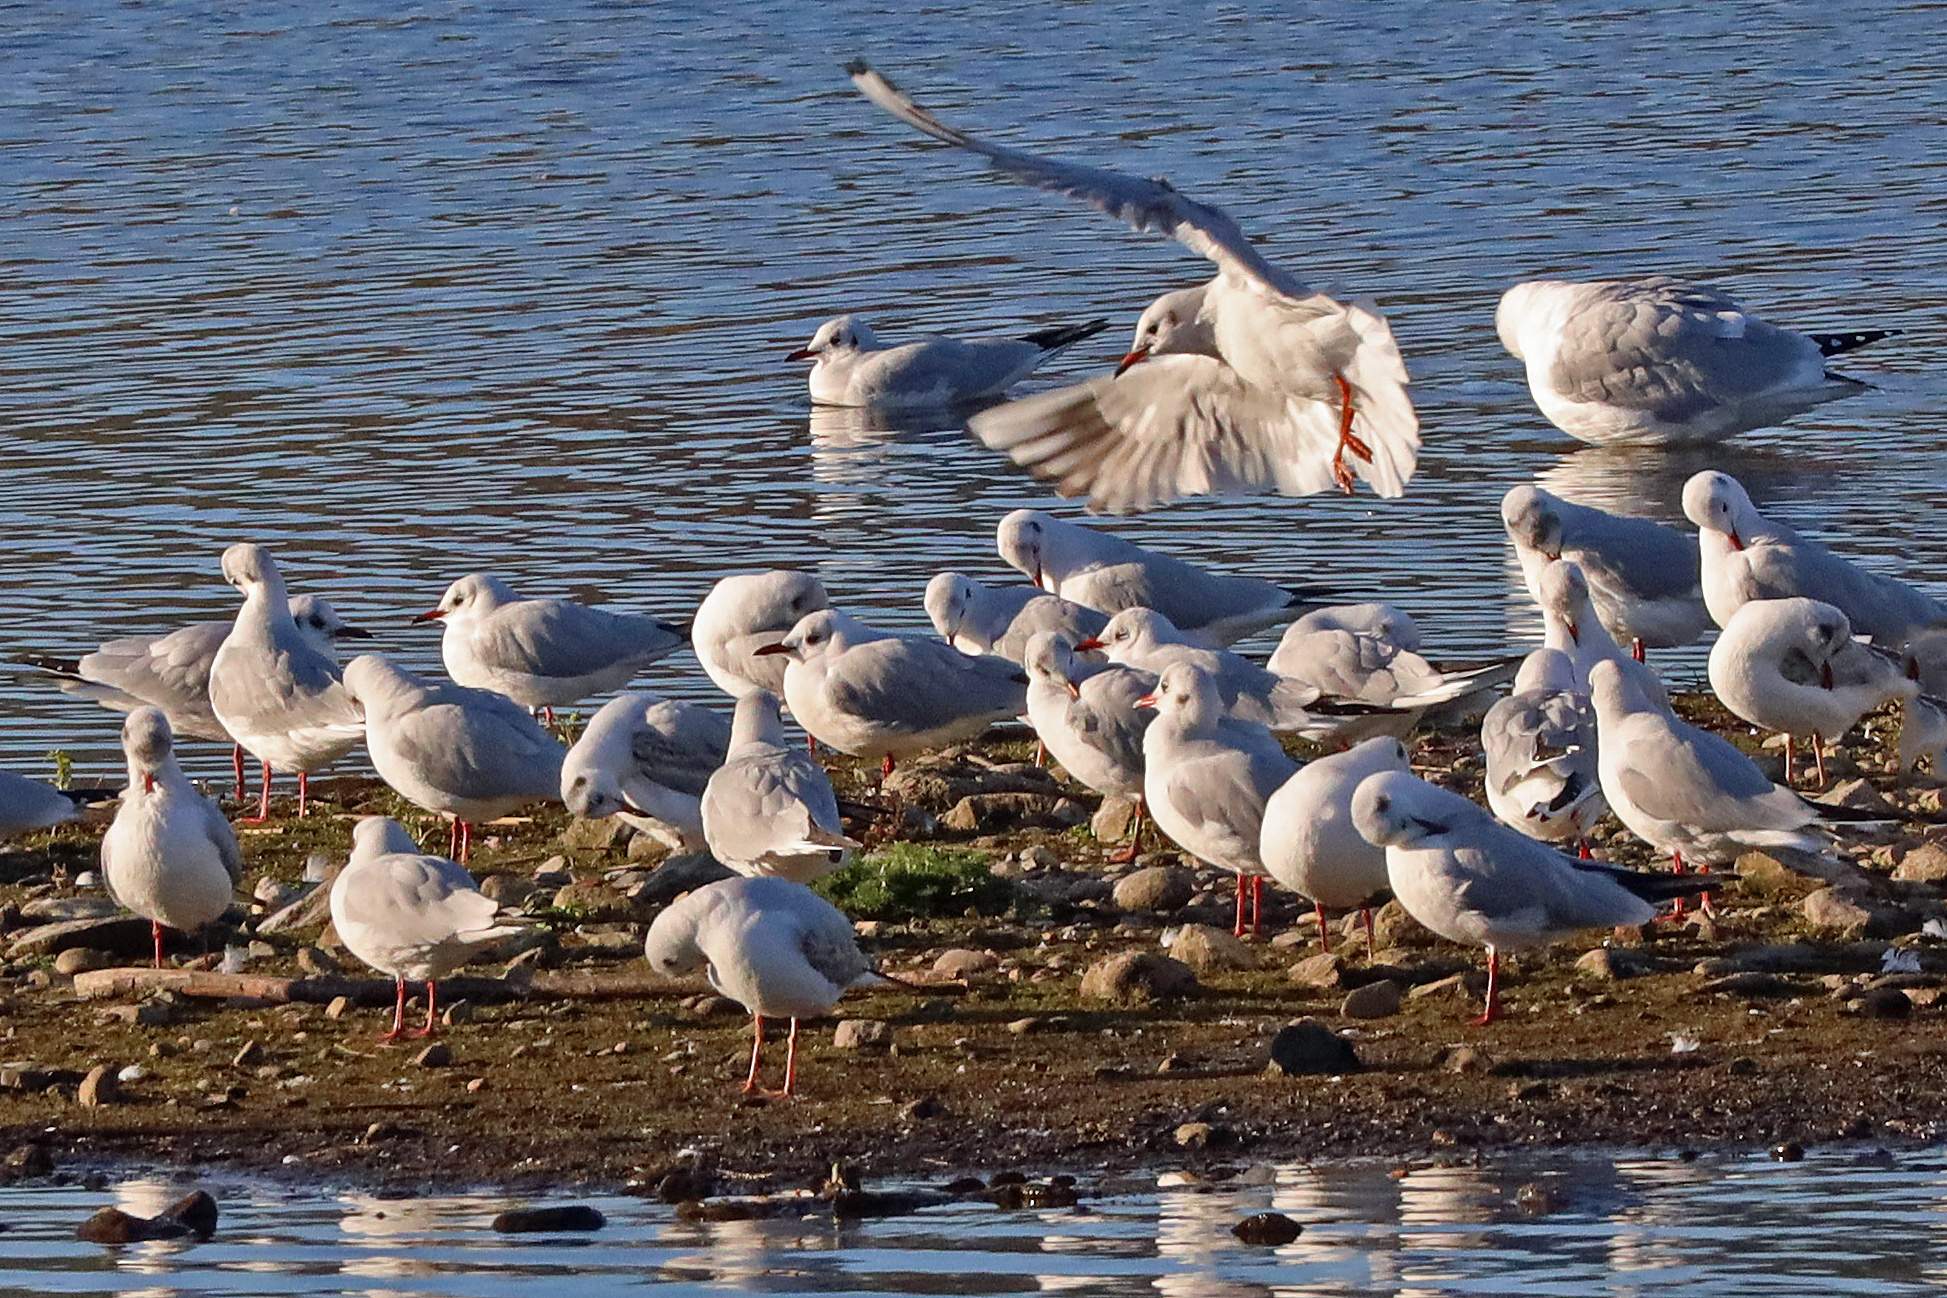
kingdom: Animalia
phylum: Chordata
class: Aves
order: Charadriiformes
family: Laridae
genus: Chroicocephalus
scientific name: Chroicocephalus ridibundus
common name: Black-headed gull
